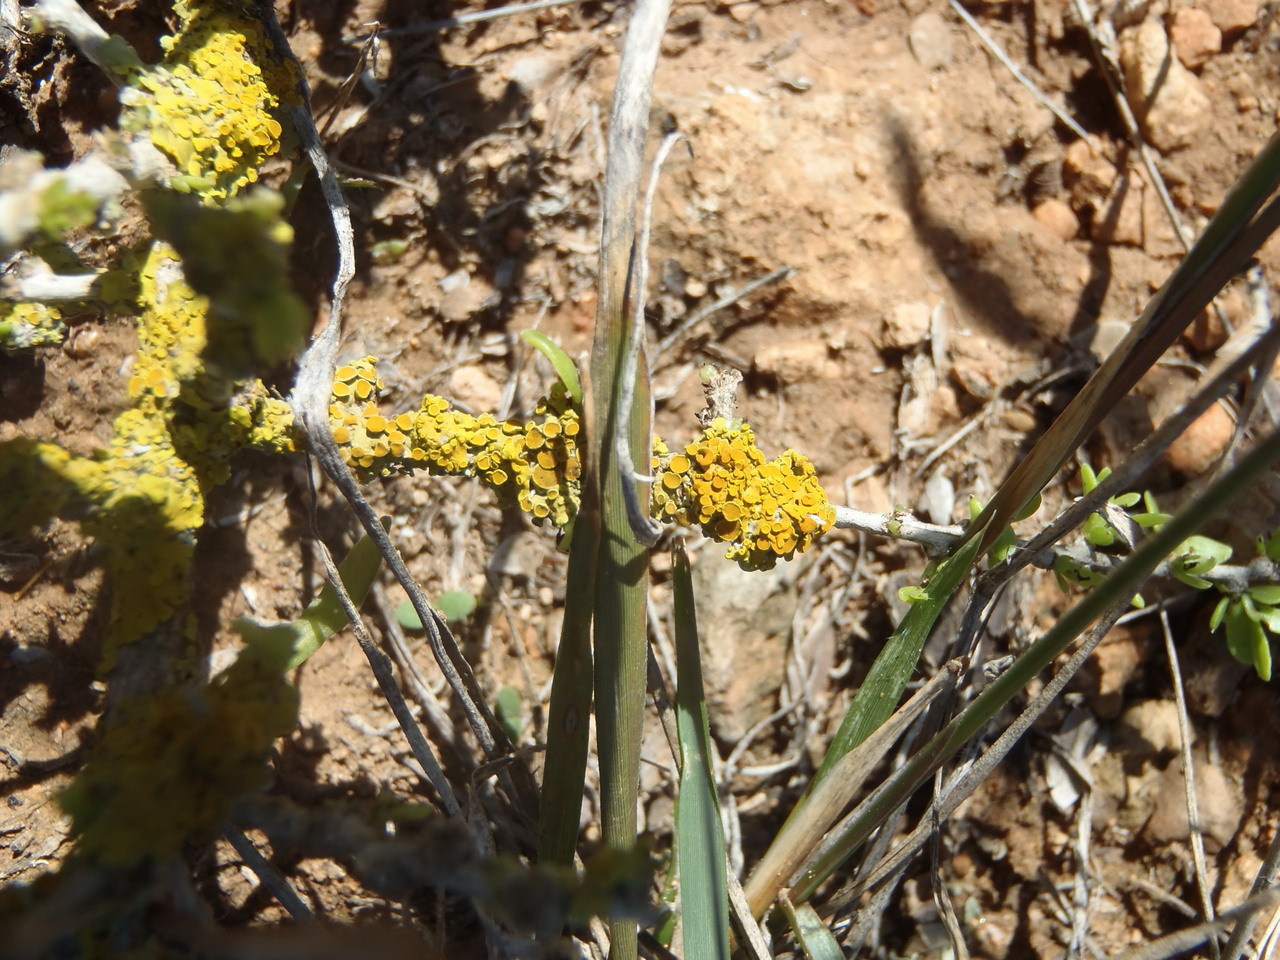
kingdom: Fungi
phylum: Ascomycota
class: Lecanoromycetes
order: Teloschistales
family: Teloschistaceae
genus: Xanthoria
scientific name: Xanthoria parietina
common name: Common orange lichen
